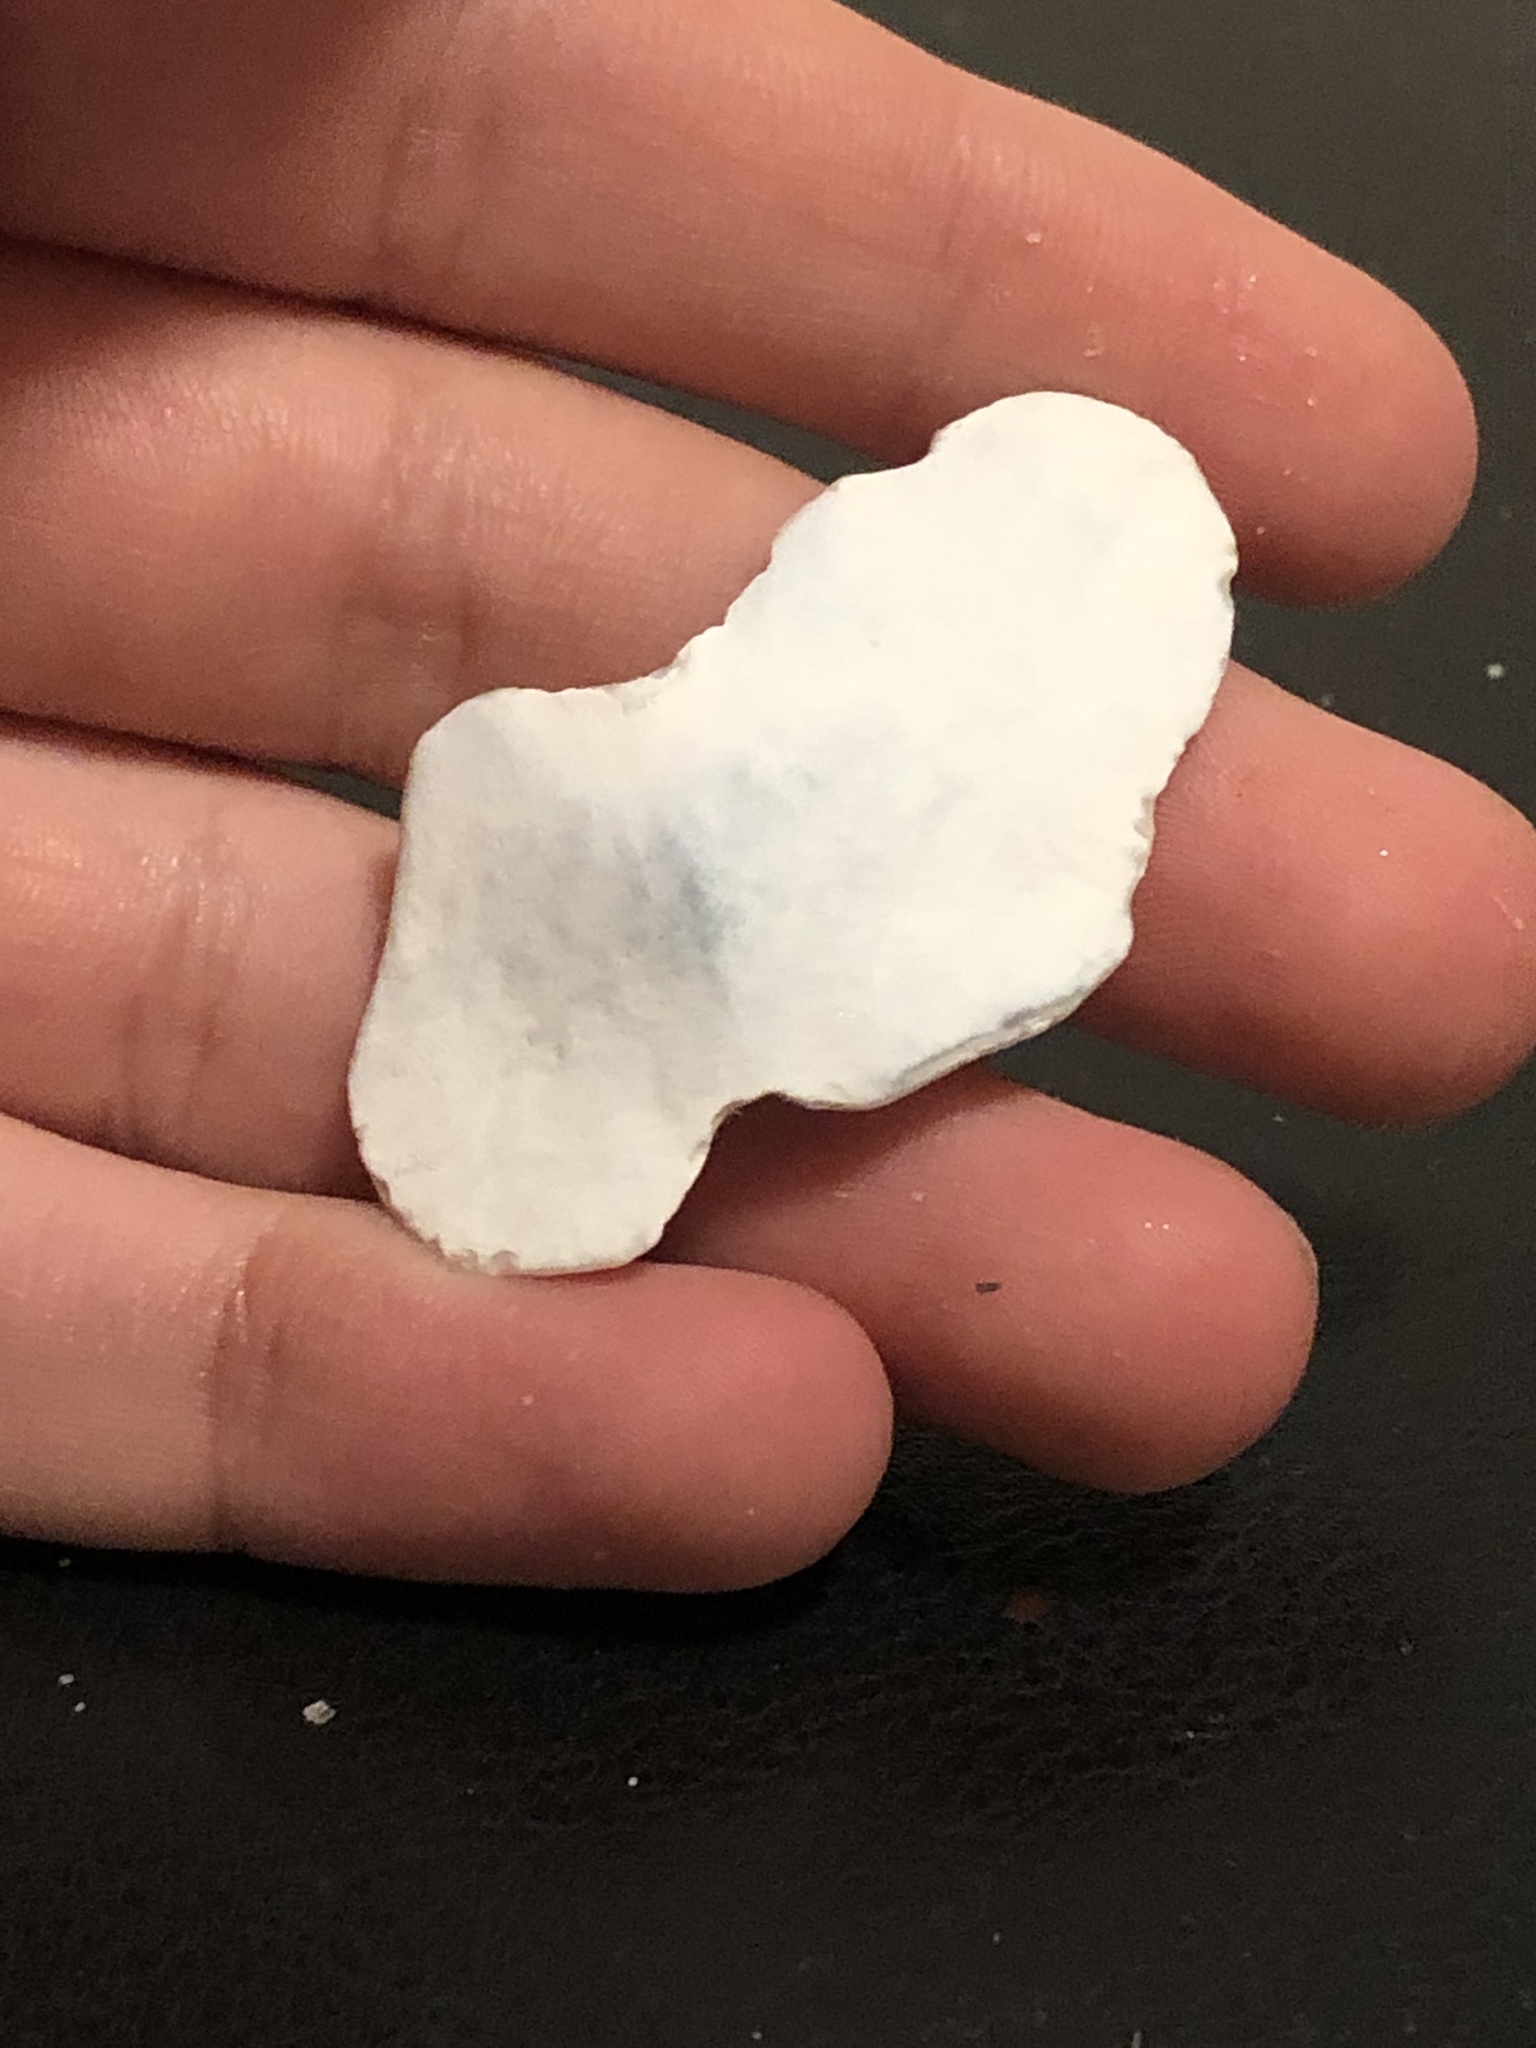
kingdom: Animalia
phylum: Mollusca
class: Polyplacophora
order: Chitonida
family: Acanthochitonidae
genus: Cryptochiton
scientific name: Cryptochiton stelleri
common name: Giant pacific chiton
